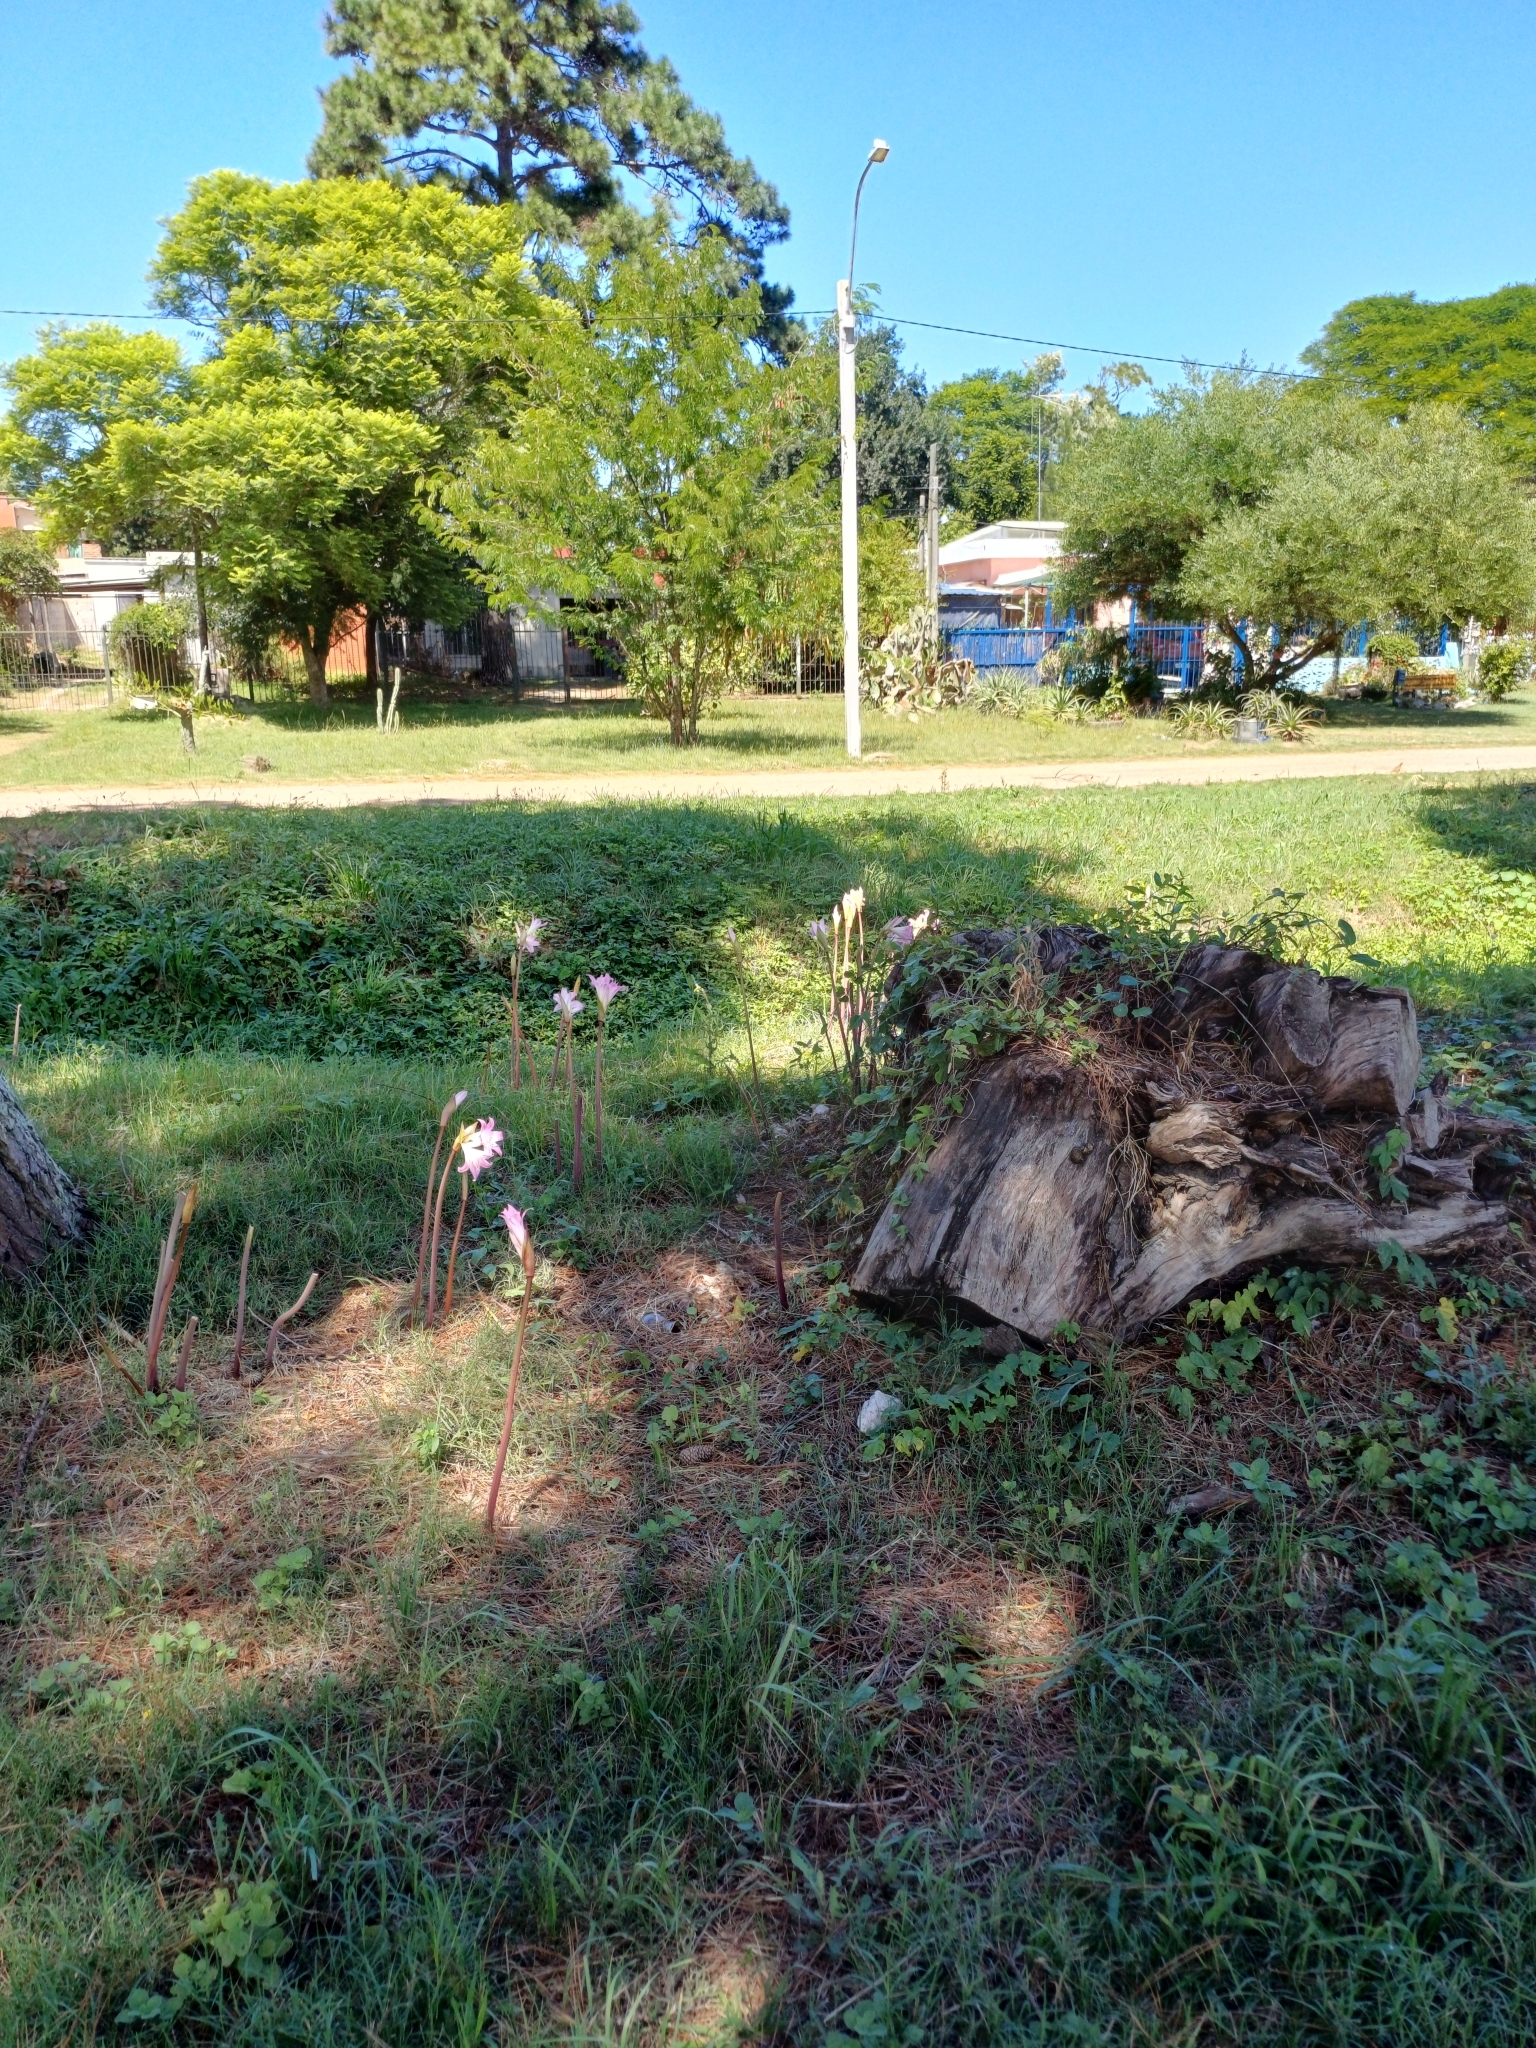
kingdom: Plantae
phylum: Tracheophyta
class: Liliopsida
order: Asparagales
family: Amaryllidaceae
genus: Amaryllis
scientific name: Amaryllis belladonna
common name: Jersey lily
